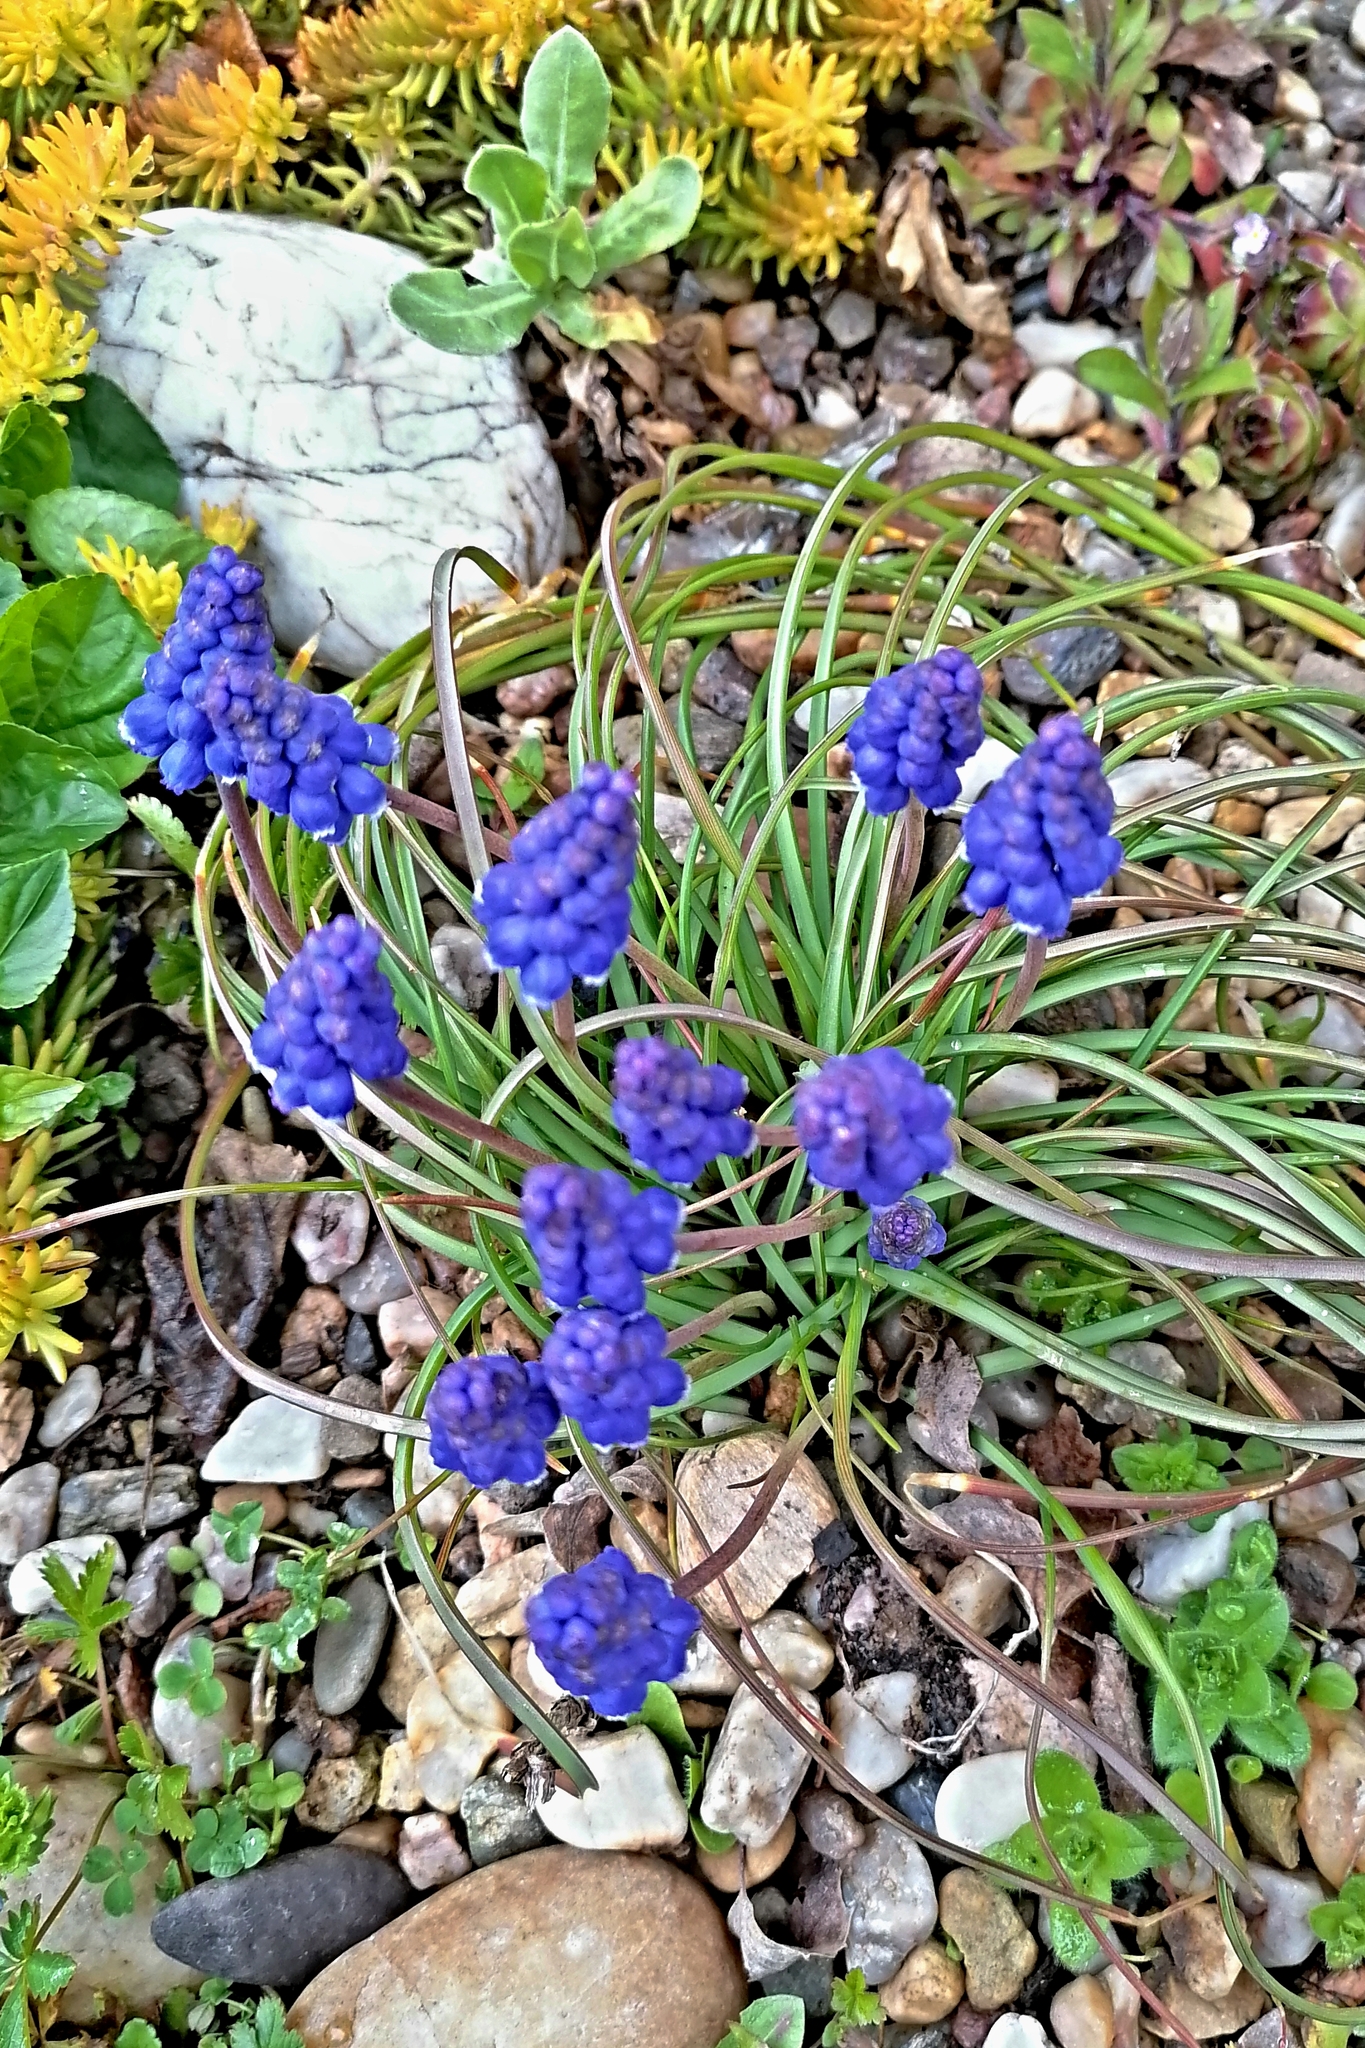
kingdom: Plantae
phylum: Tracheophyta
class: Liliopsida
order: Asparagales
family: Asparagaceae
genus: Muscari
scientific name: Muscari armeniacum
